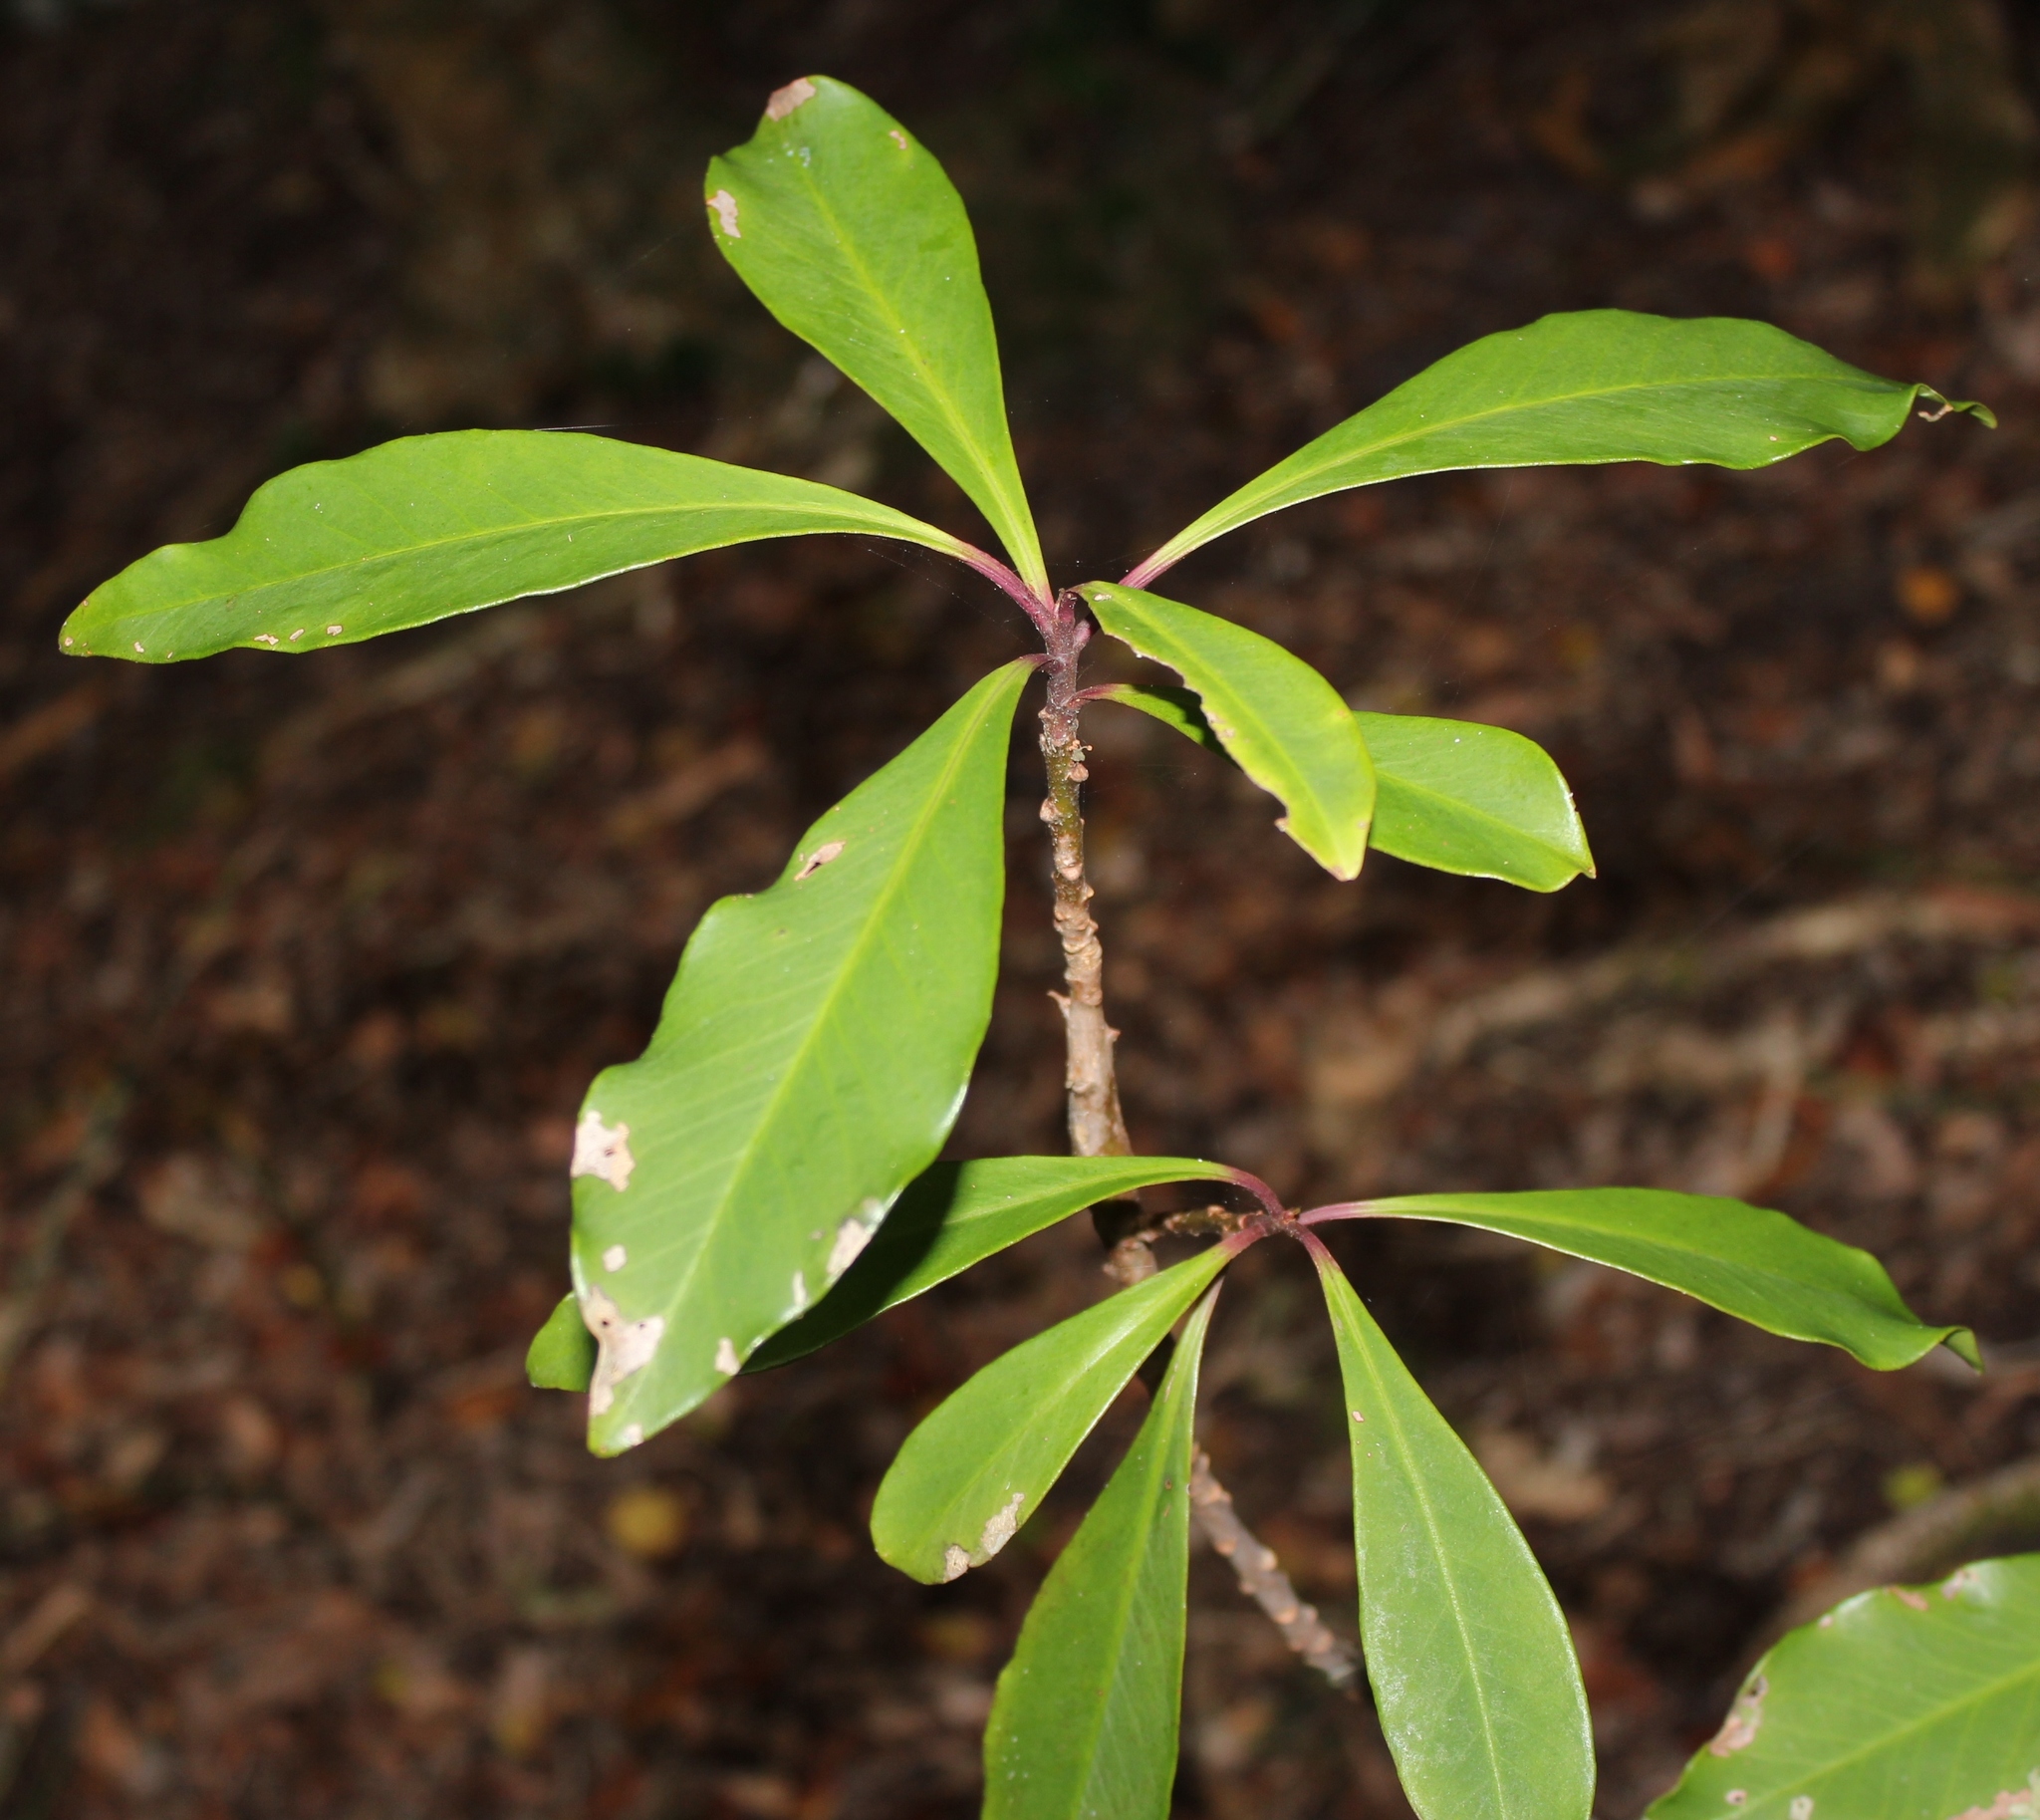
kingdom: Plantae
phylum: Tracheophyta
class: Magnoliopsida
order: Ericales
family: Primulaceae
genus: Myrsine
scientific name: Myrsine melanophloeos
